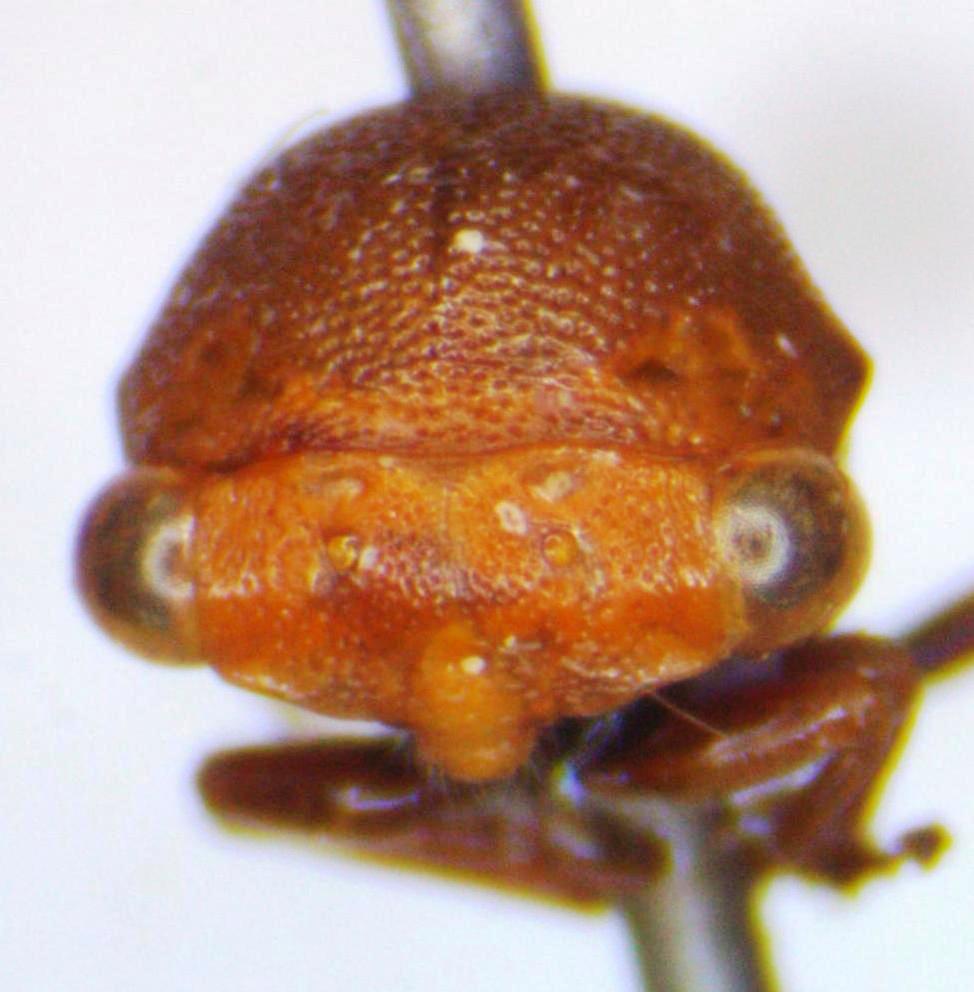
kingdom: Animalia
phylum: Arthropoda
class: Insecta
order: Hemiptera
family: Membracidae
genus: Procyrta
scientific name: Procyrta pectoralis
